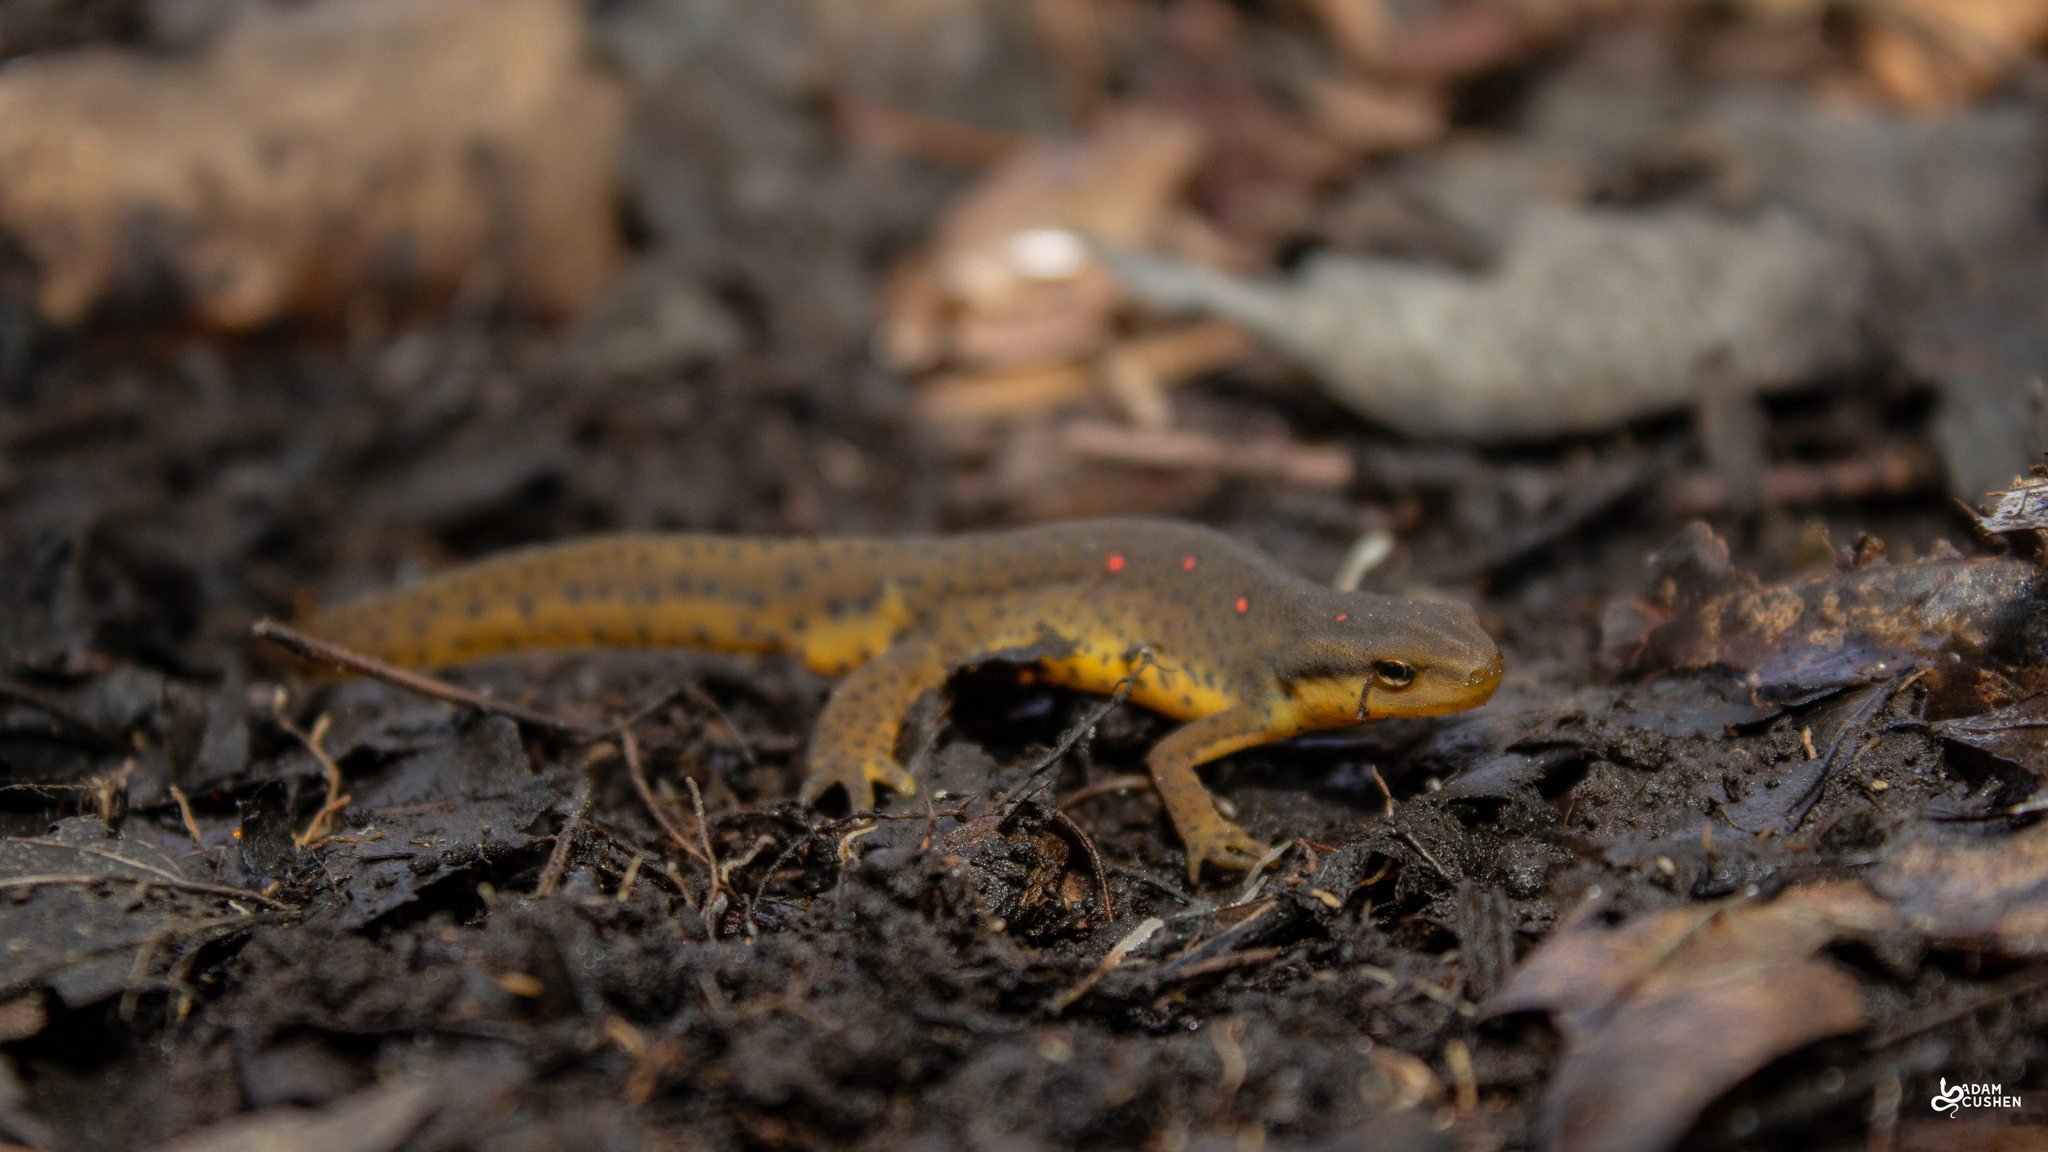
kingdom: Animalia
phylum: Chordata
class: Amphibia
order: Caudata
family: Salamandridae
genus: Notophthalmus
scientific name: Notophthalmus viridescens
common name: Eastern newt
